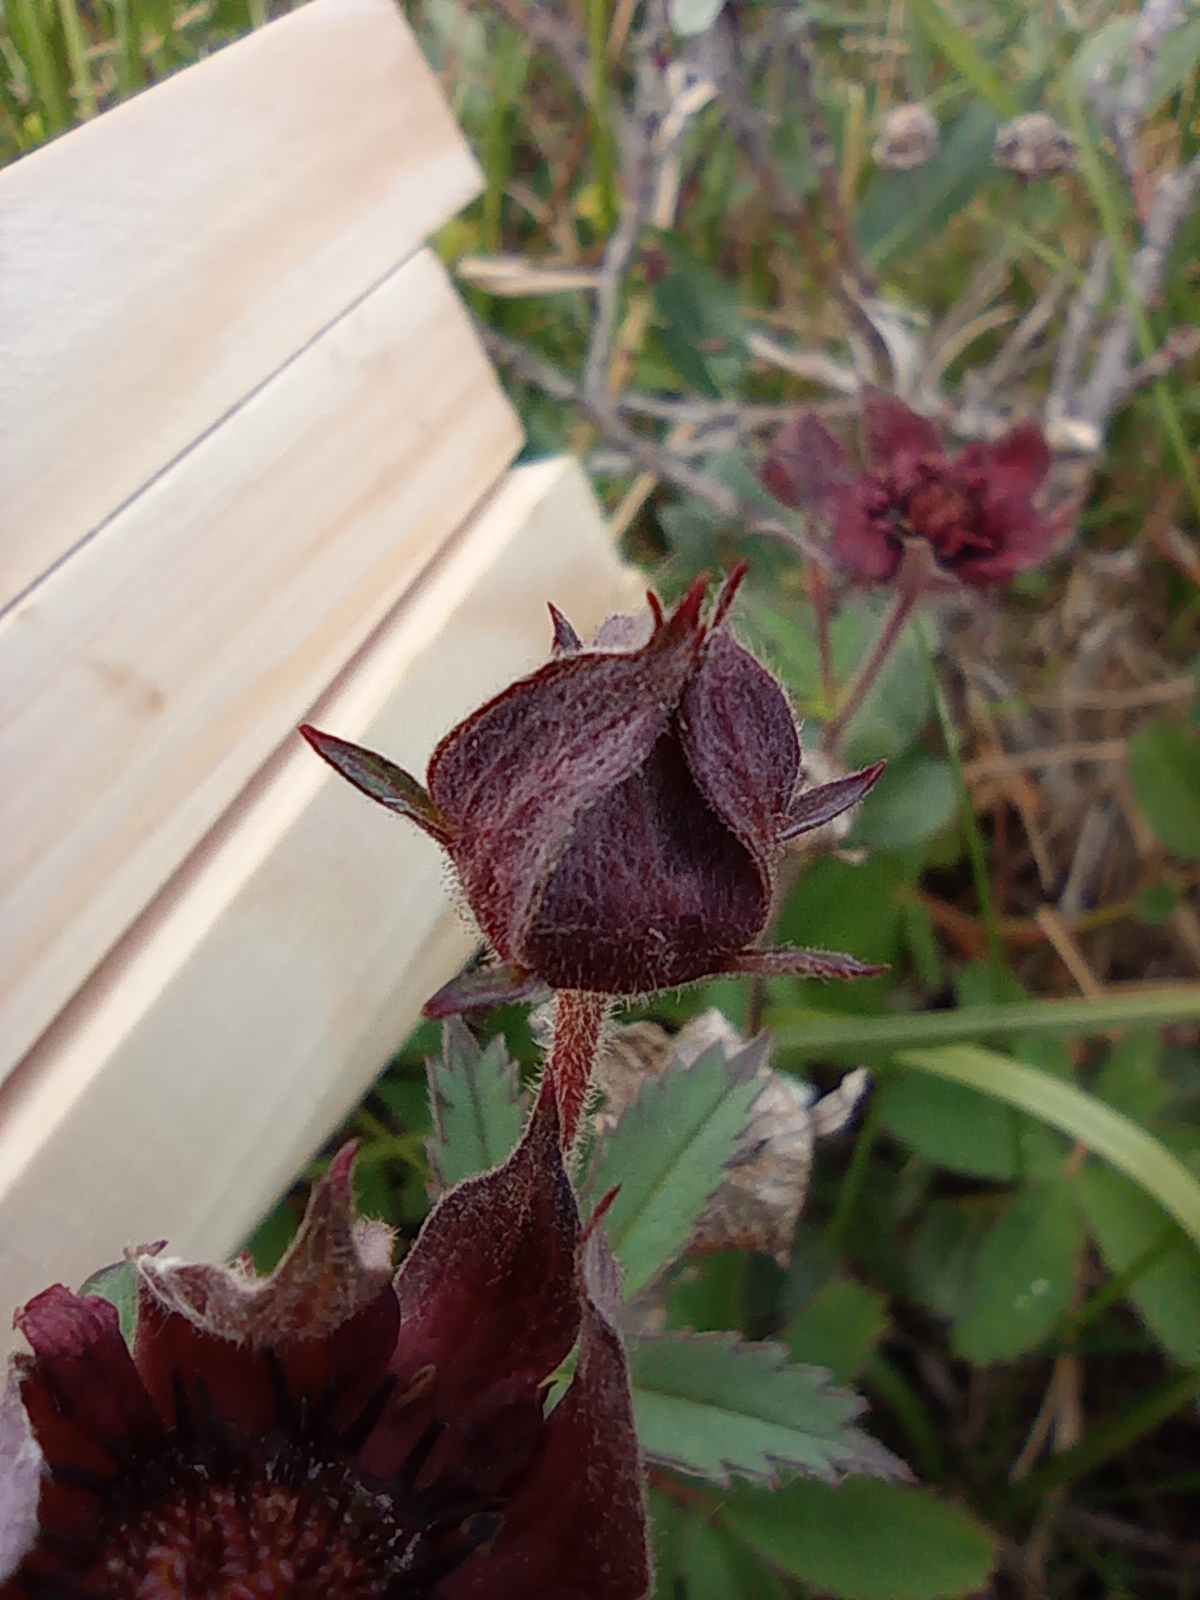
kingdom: Plantae
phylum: Tracheophyta
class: Magnoliopsida
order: Rosales
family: Rosaceae
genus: Comarum
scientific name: Comarum palustre
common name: Marsh cinquefoil
